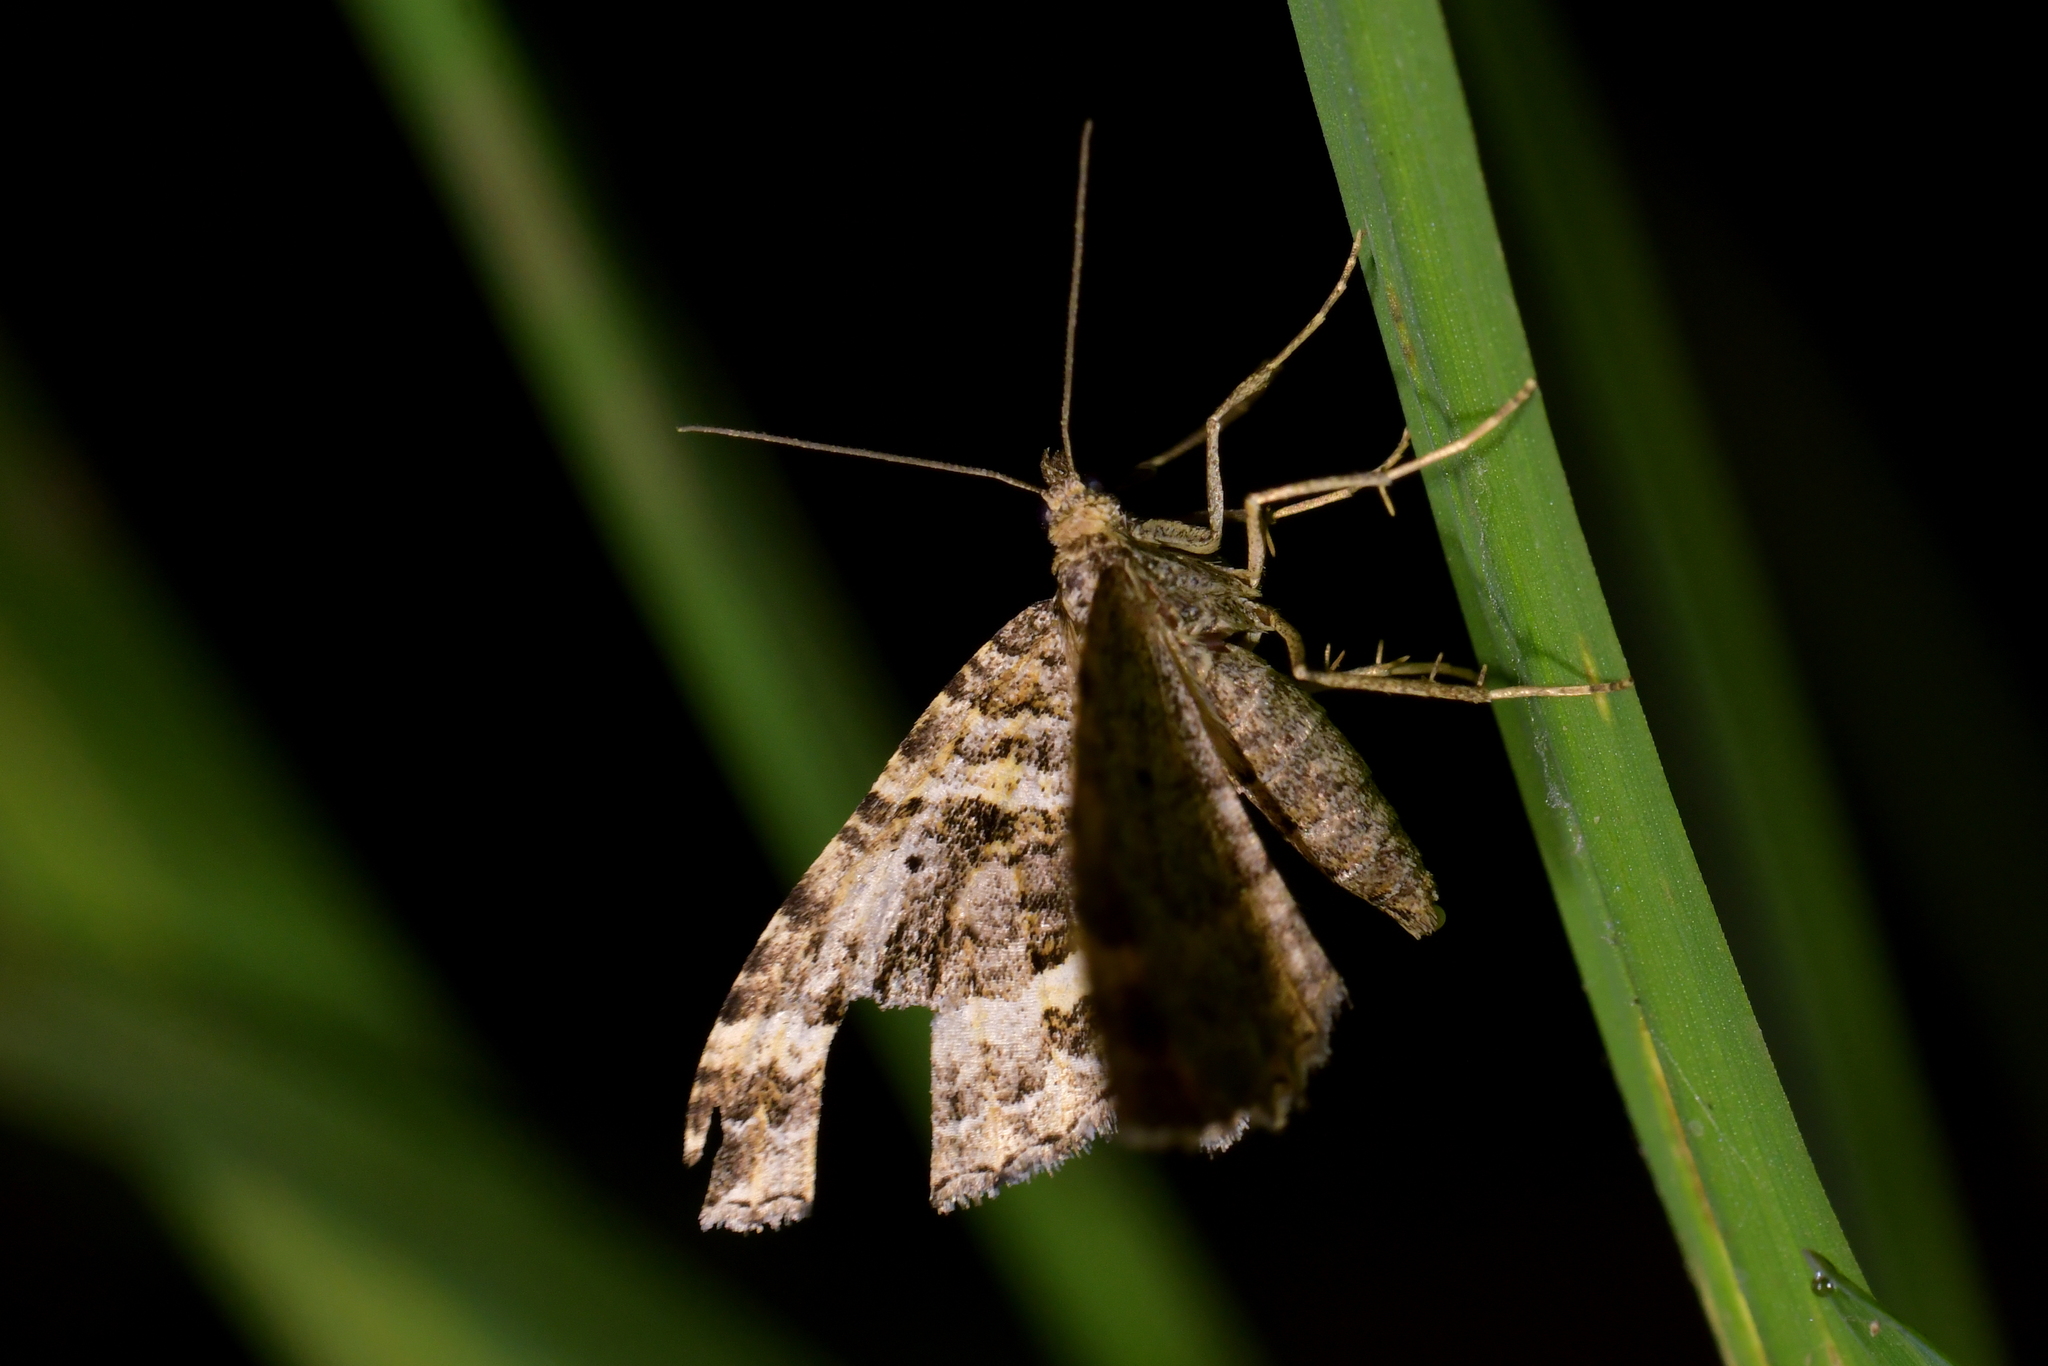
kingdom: Animalia
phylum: Arthropoda
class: Insecta
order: Lepidoptera
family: Geometridae
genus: Chrysolarentia
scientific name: Chrysolarentia subrectaria
